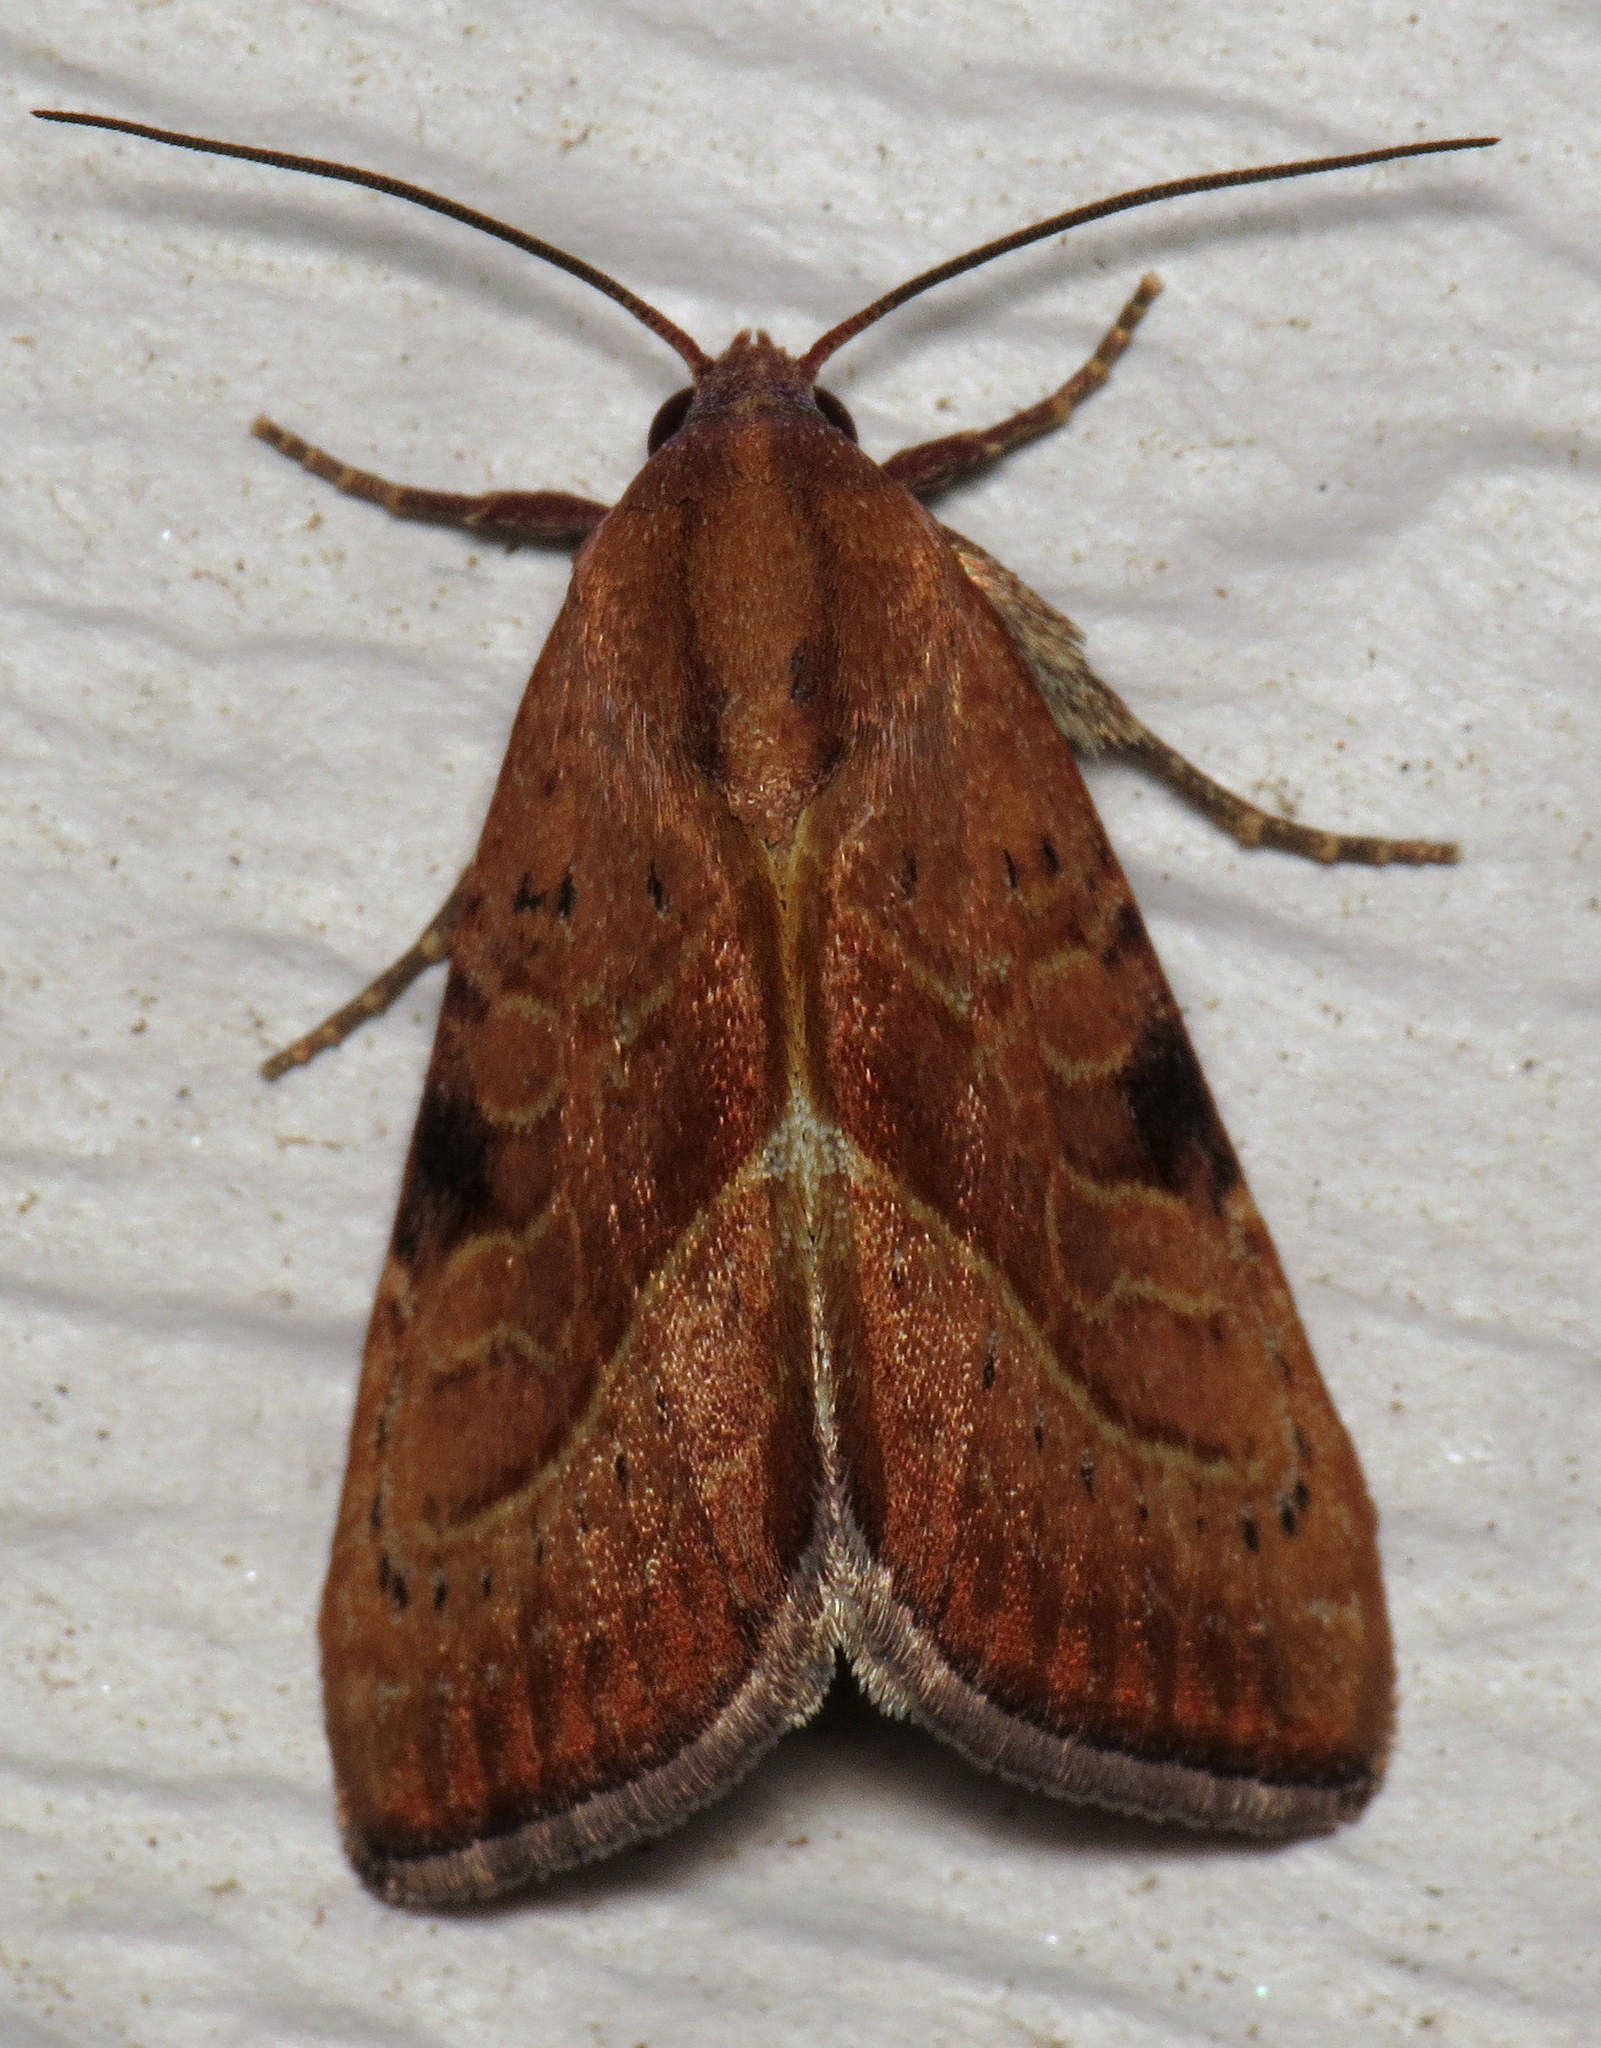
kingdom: Animalia
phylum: Arthropoda
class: Insecta
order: Lepidoptera
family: Noctuidae
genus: Galgula
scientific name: Galgula partita
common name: Wedgeling
